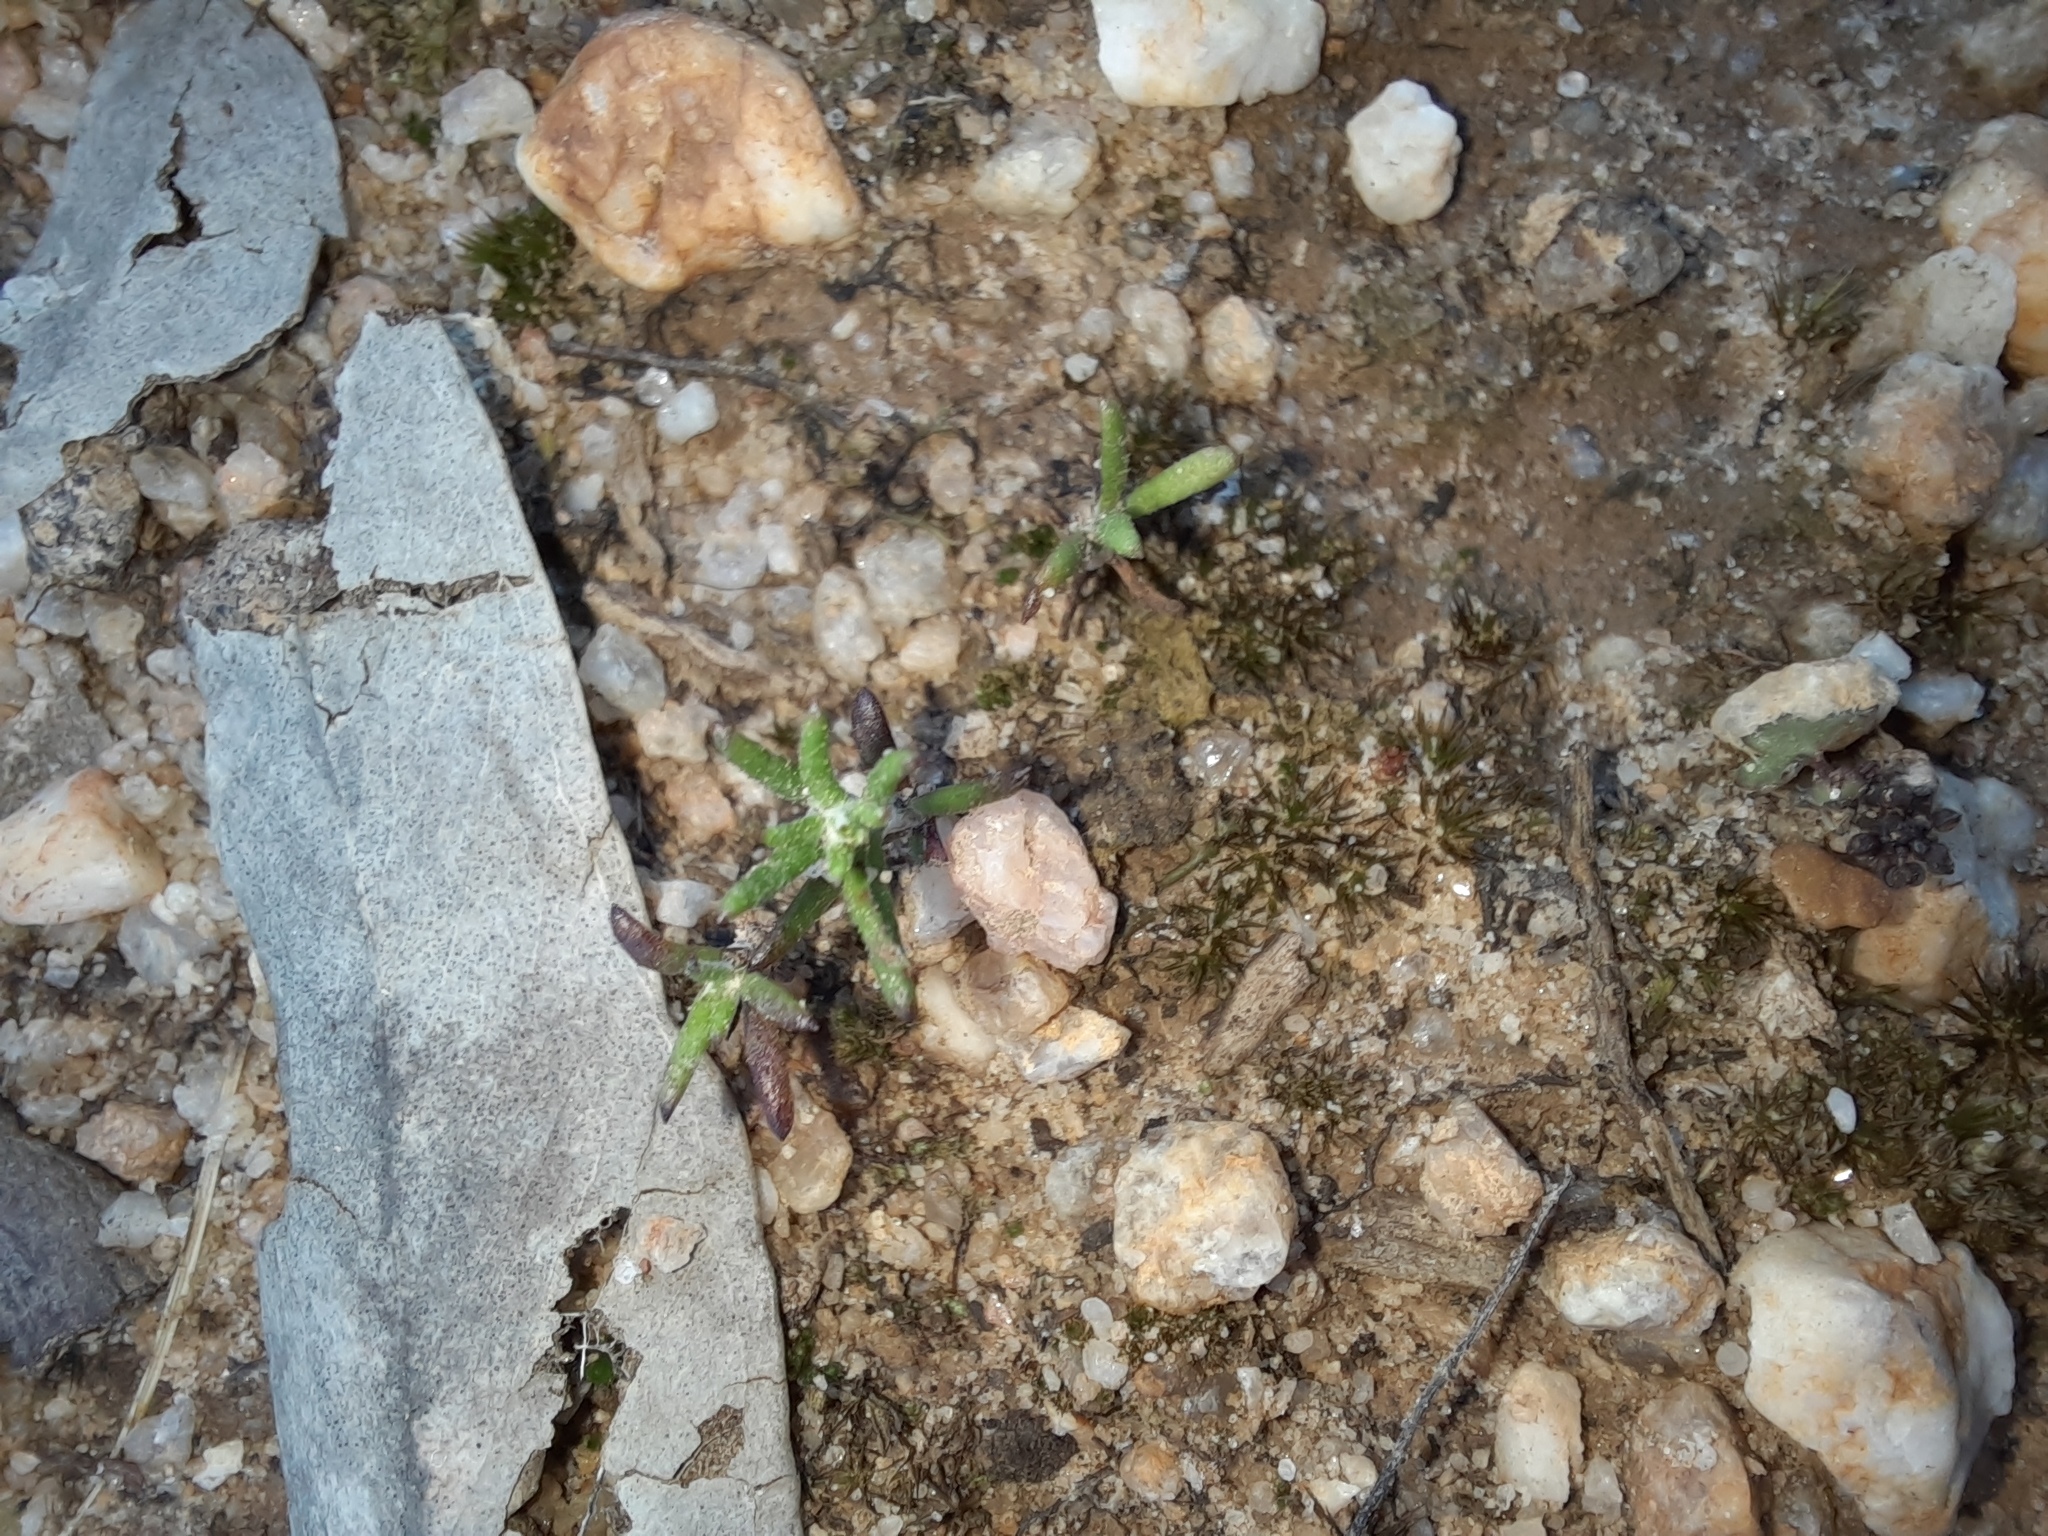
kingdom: Plantae
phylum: Tracheophyta
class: Magnoliopsida
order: Asterales
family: Asteraceae
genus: Siloxerus
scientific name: Siloxerus multiflorus
